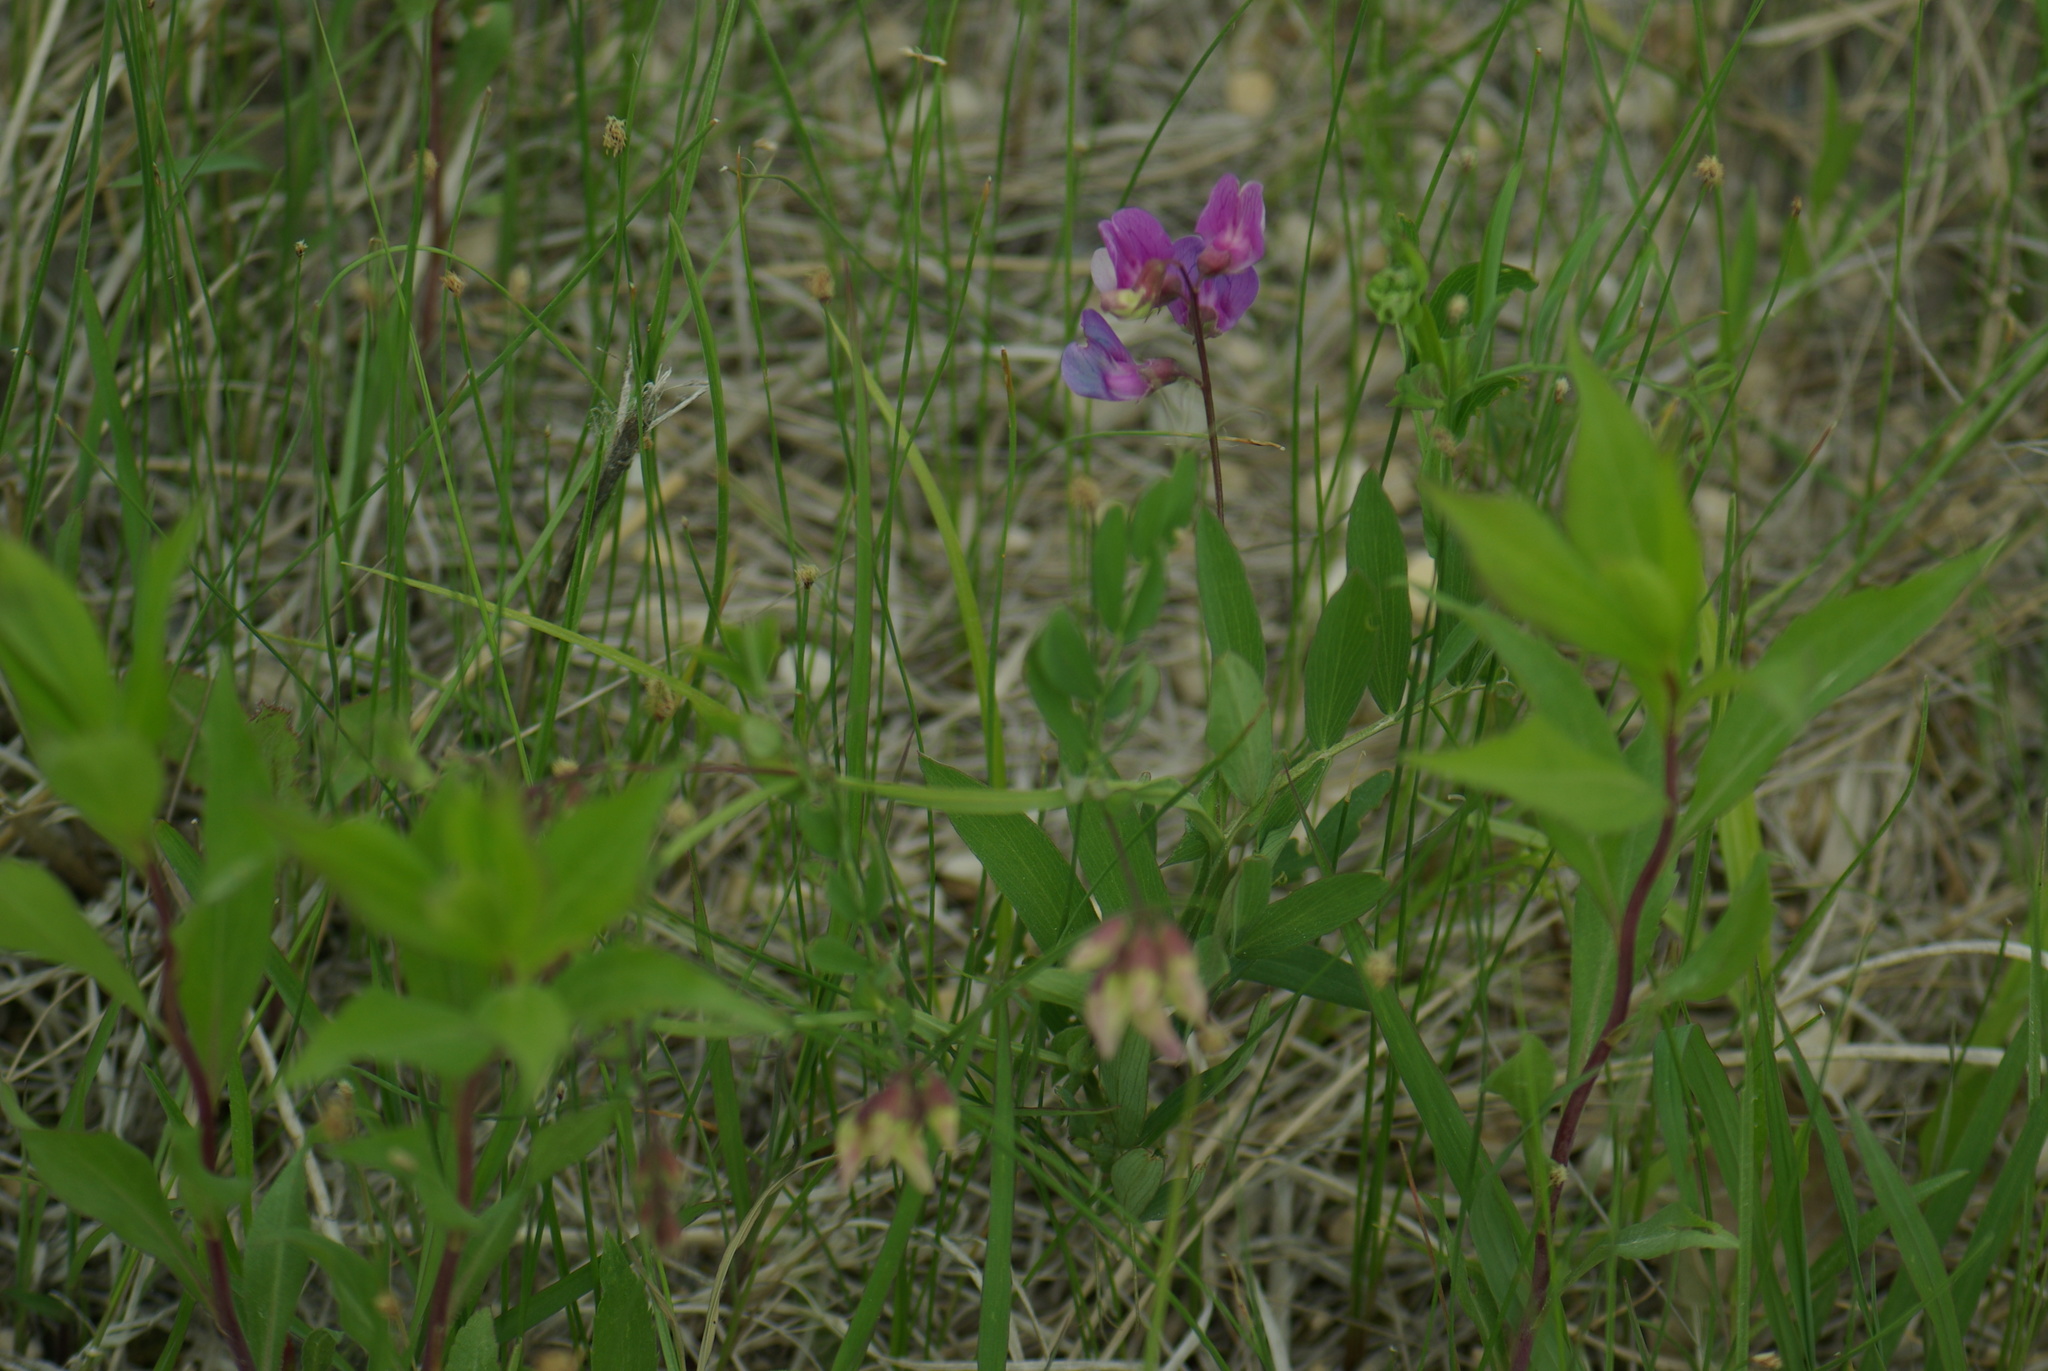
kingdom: Plantae
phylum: Tracheophyta
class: Magnoliopsida
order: Fabales
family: Fabaceae
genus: Lathyrus
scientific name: Lathyrus venosus
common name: Forest-pea
